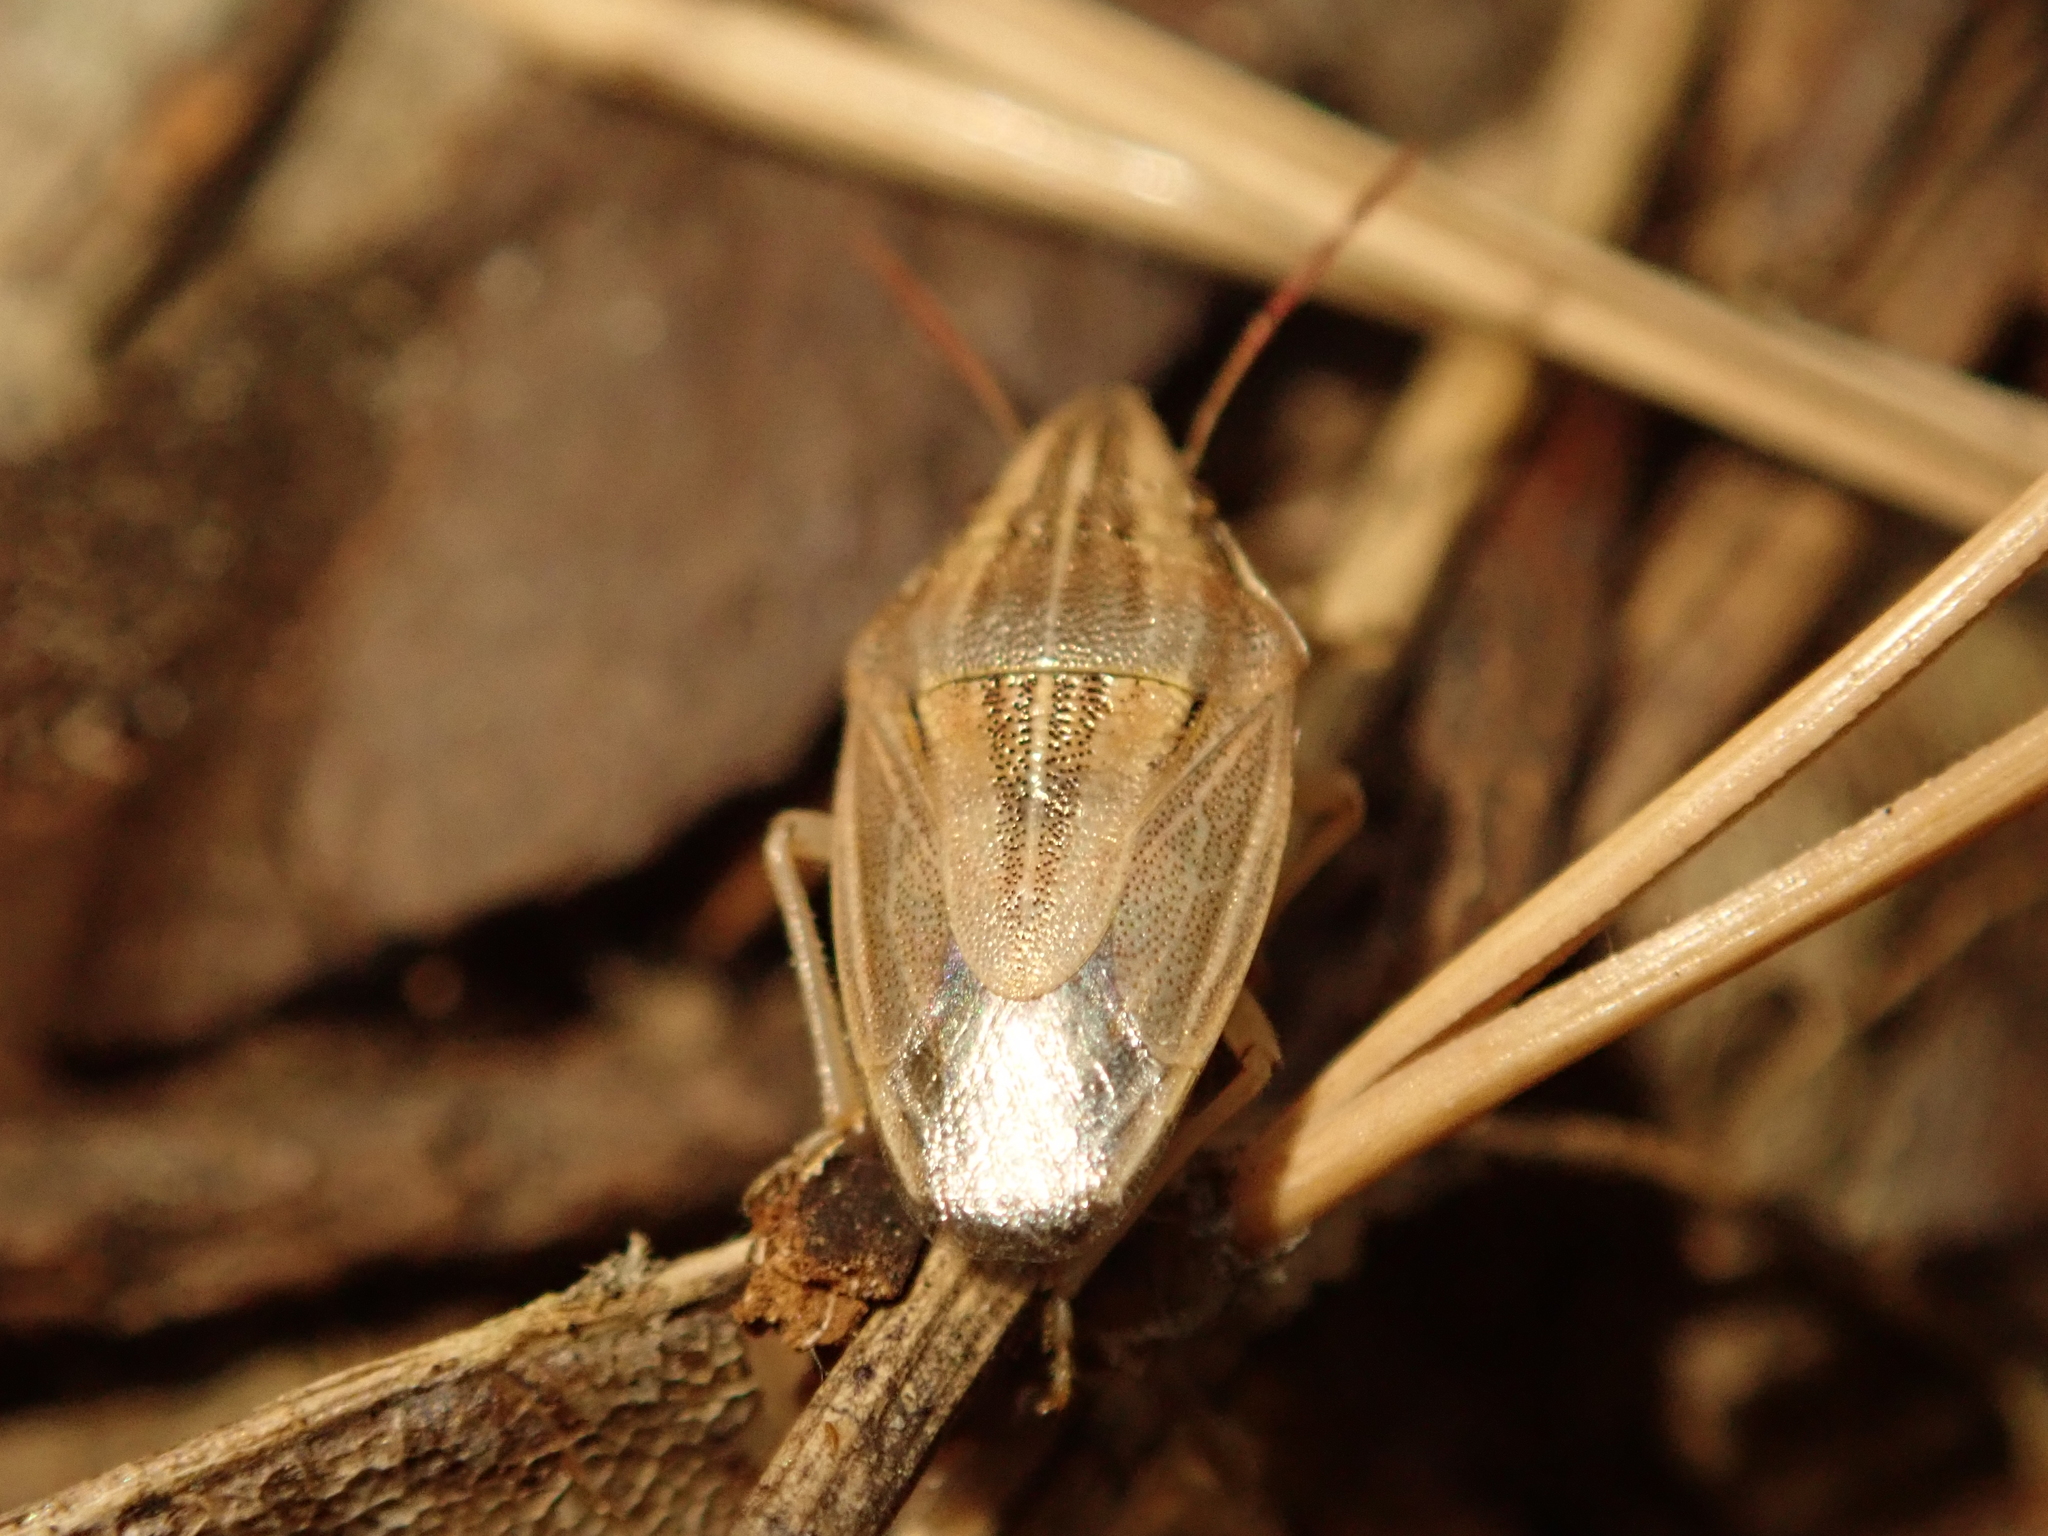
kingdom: Animalia
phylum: Arthropoda
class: Insecta
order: Hemiptera
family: Pentatomidae
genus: Aelia
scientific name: Aelia acuminata
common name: Bishop's mitre
